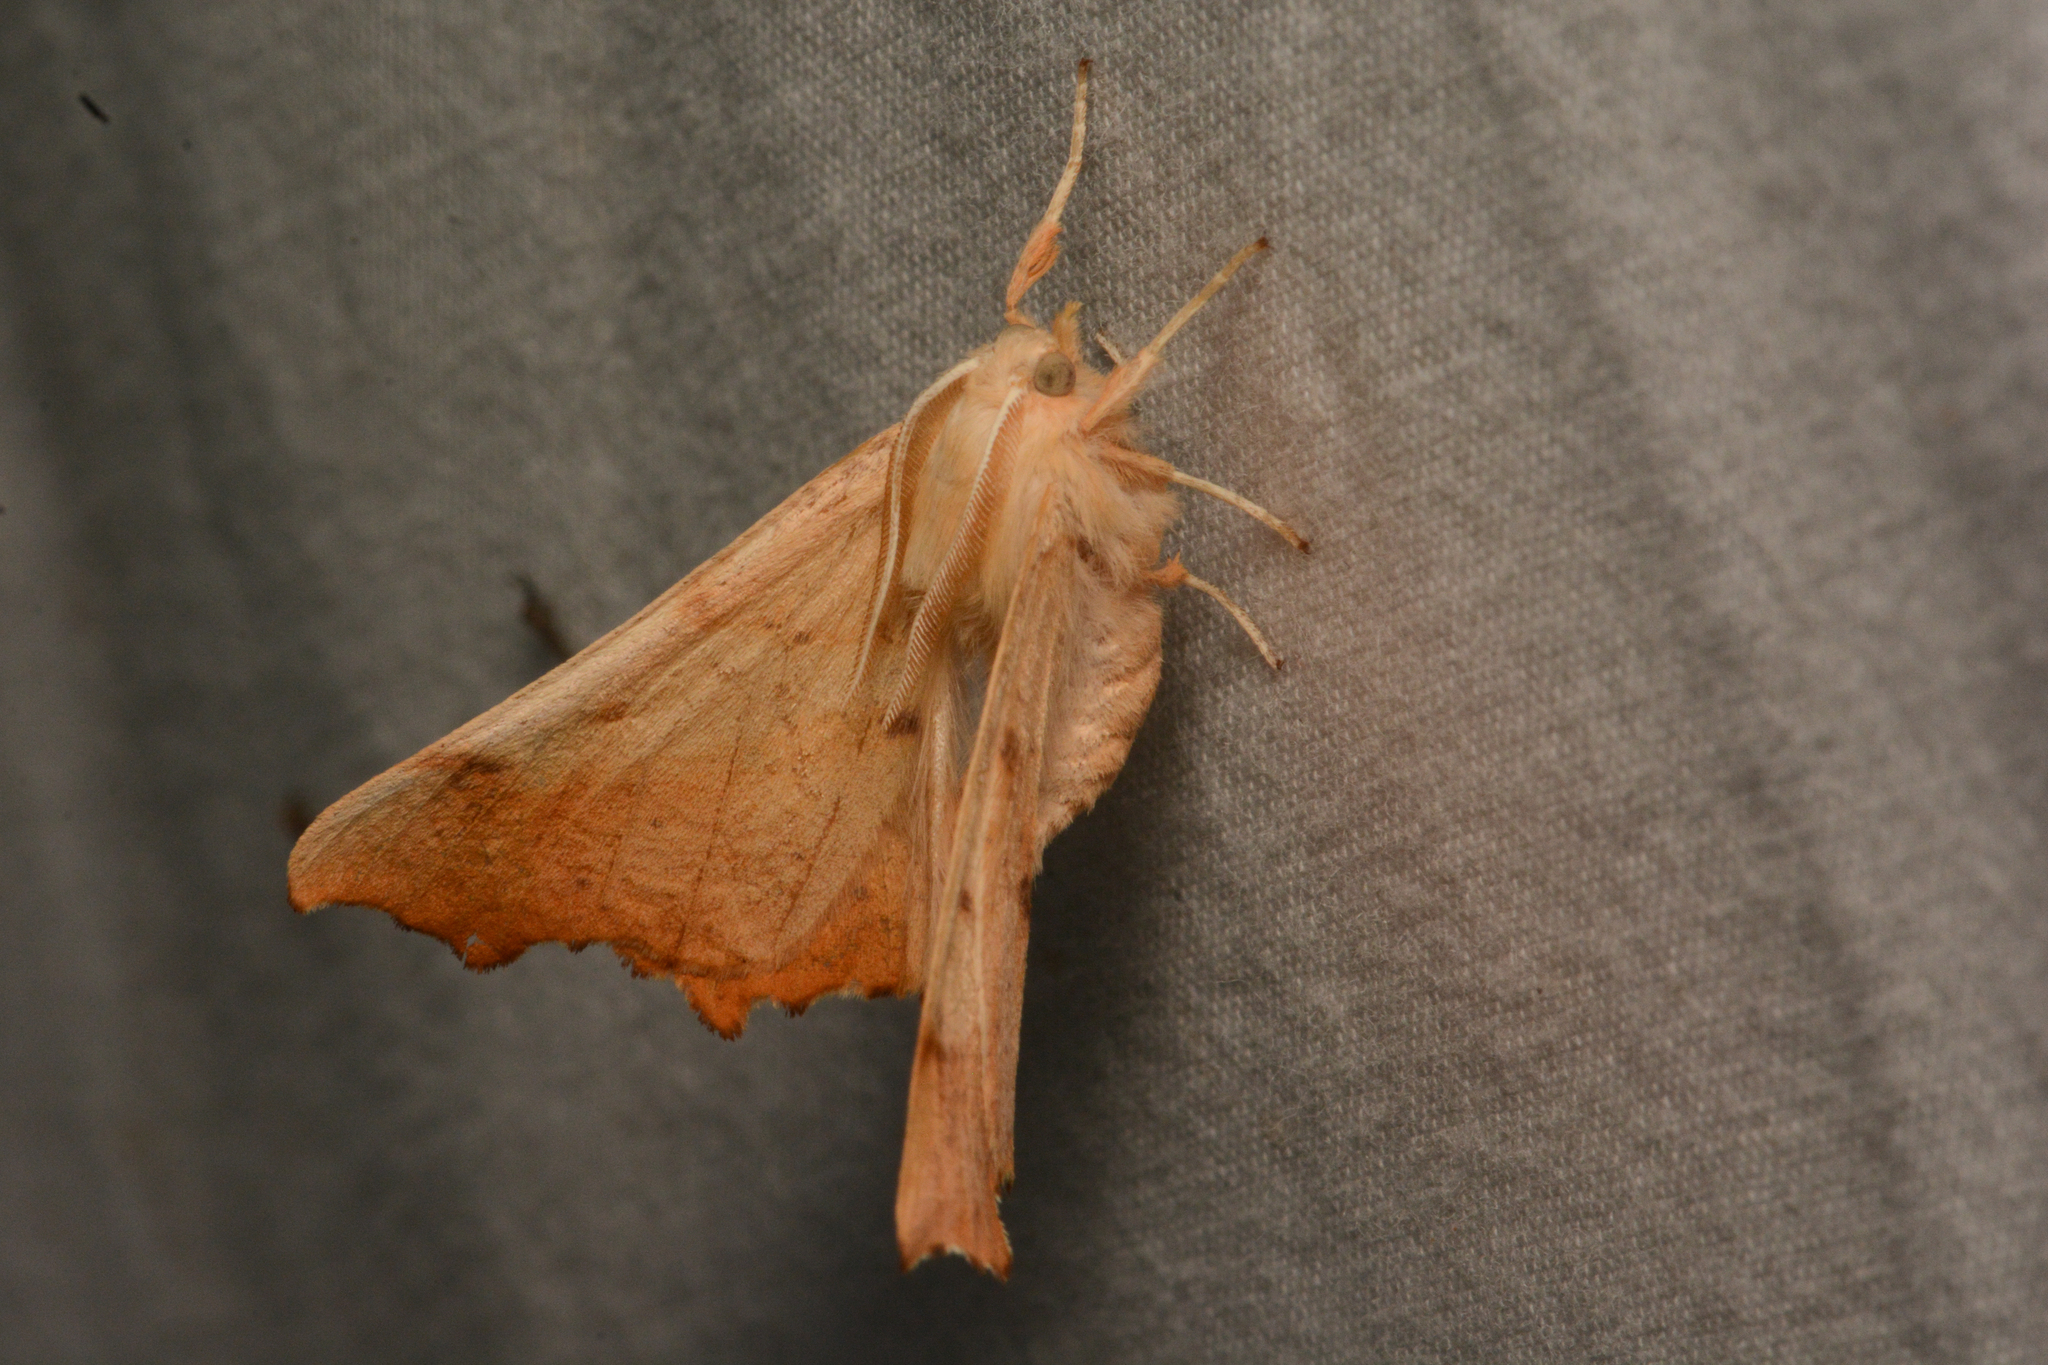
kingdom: Animalia
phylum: Arthropoda
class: Insecta
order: Lepidoptera
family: Geometridae
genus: Ennomos
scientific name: Ennomos magnaria
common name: Maple spanworm
